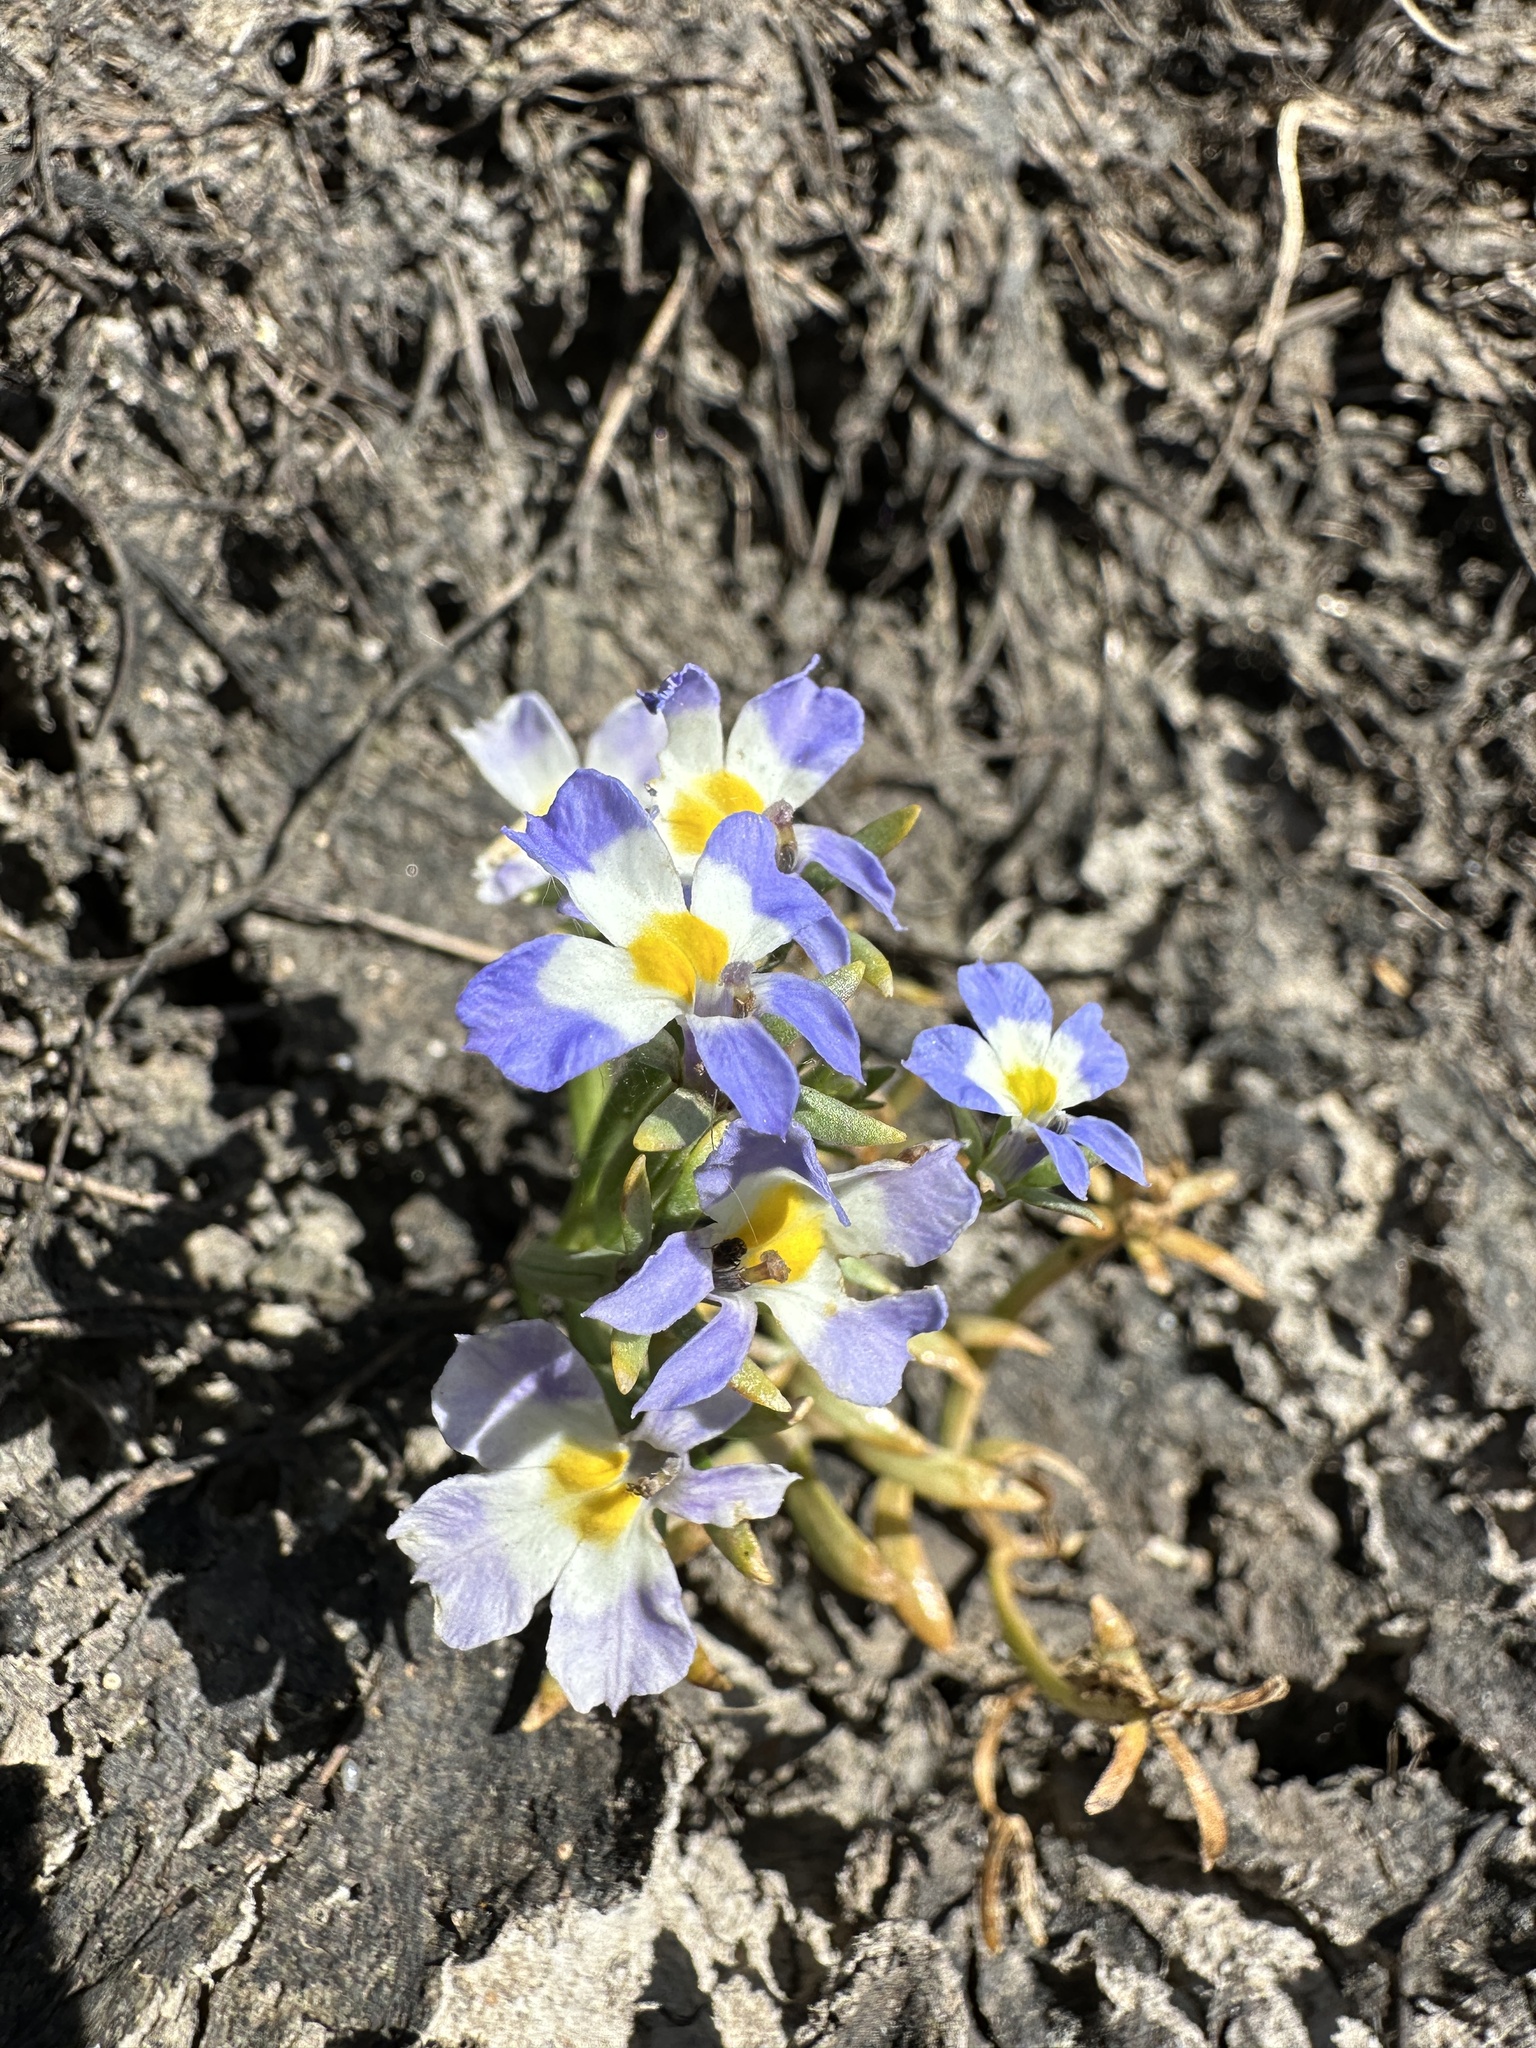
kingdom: Plantae
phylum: Tracheophyta
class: Magnoliopsida
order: Asterales
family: Campanulaceae
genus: Downingia
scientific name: Downingia cuspidata
